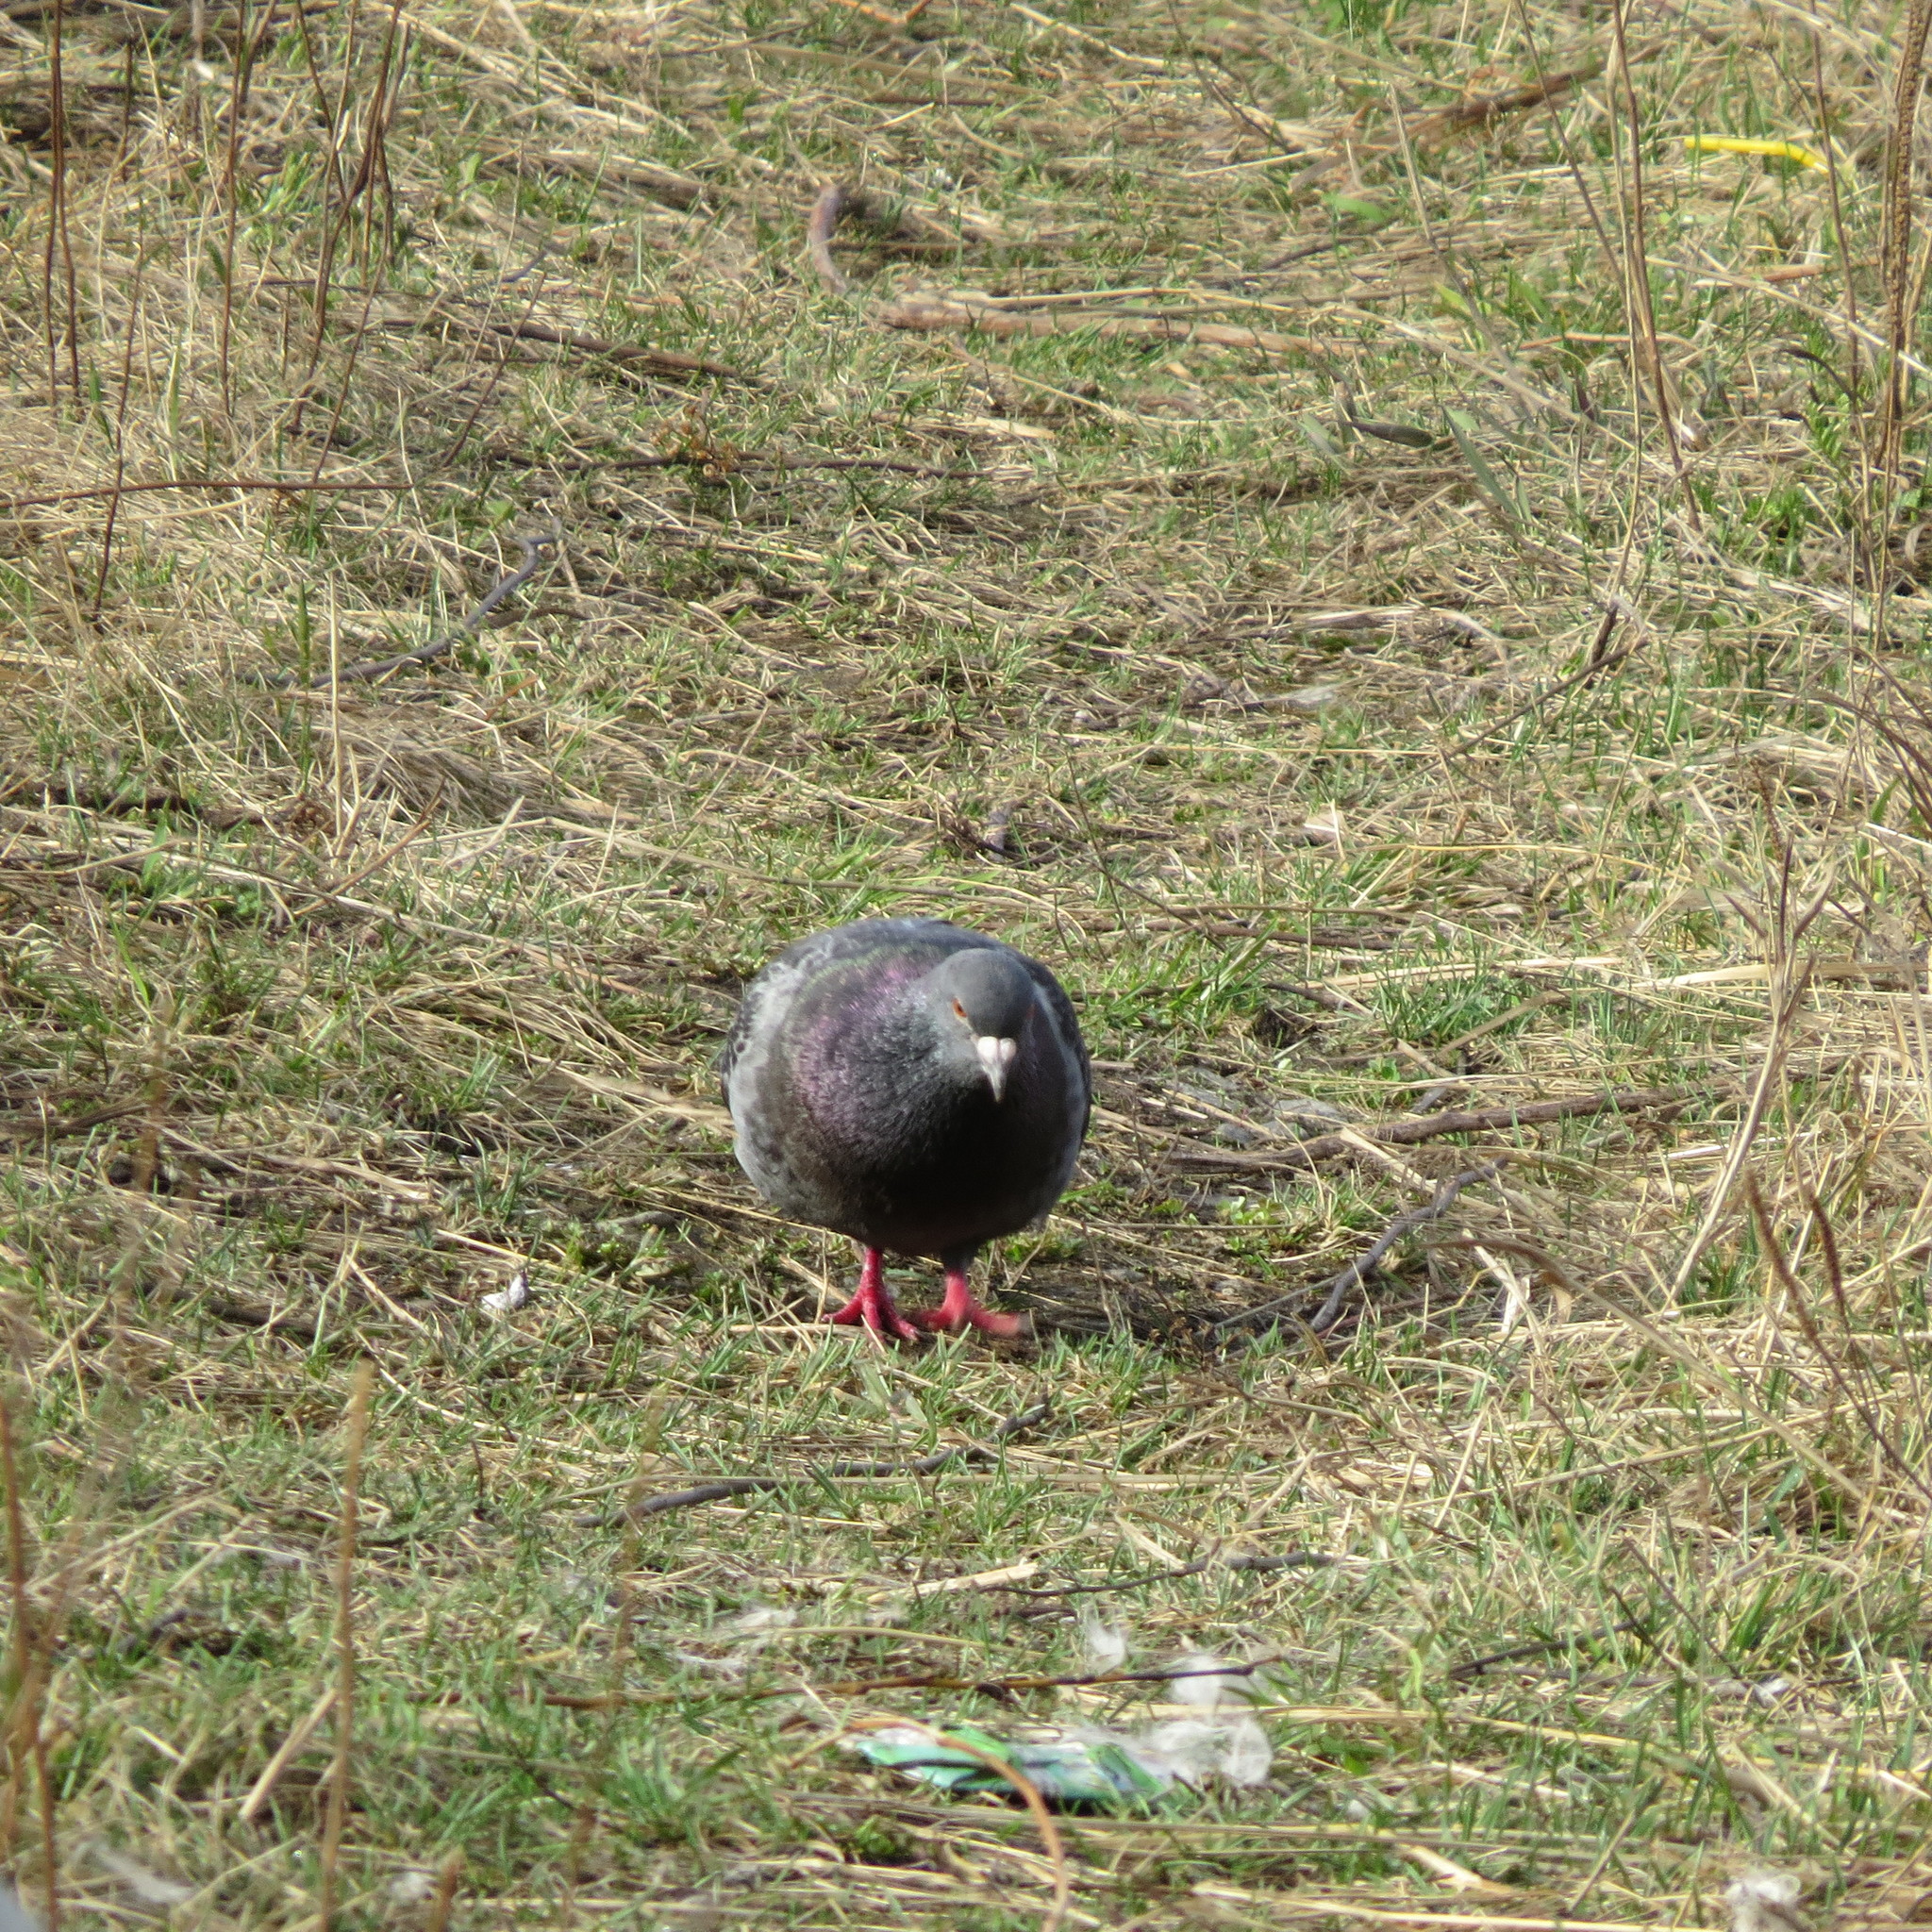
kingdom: Animalia
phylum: Chordata
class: Aves
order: Columbiformes
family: Columbidae
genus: Columba
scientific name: Columba livia
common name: Rock pigeon
